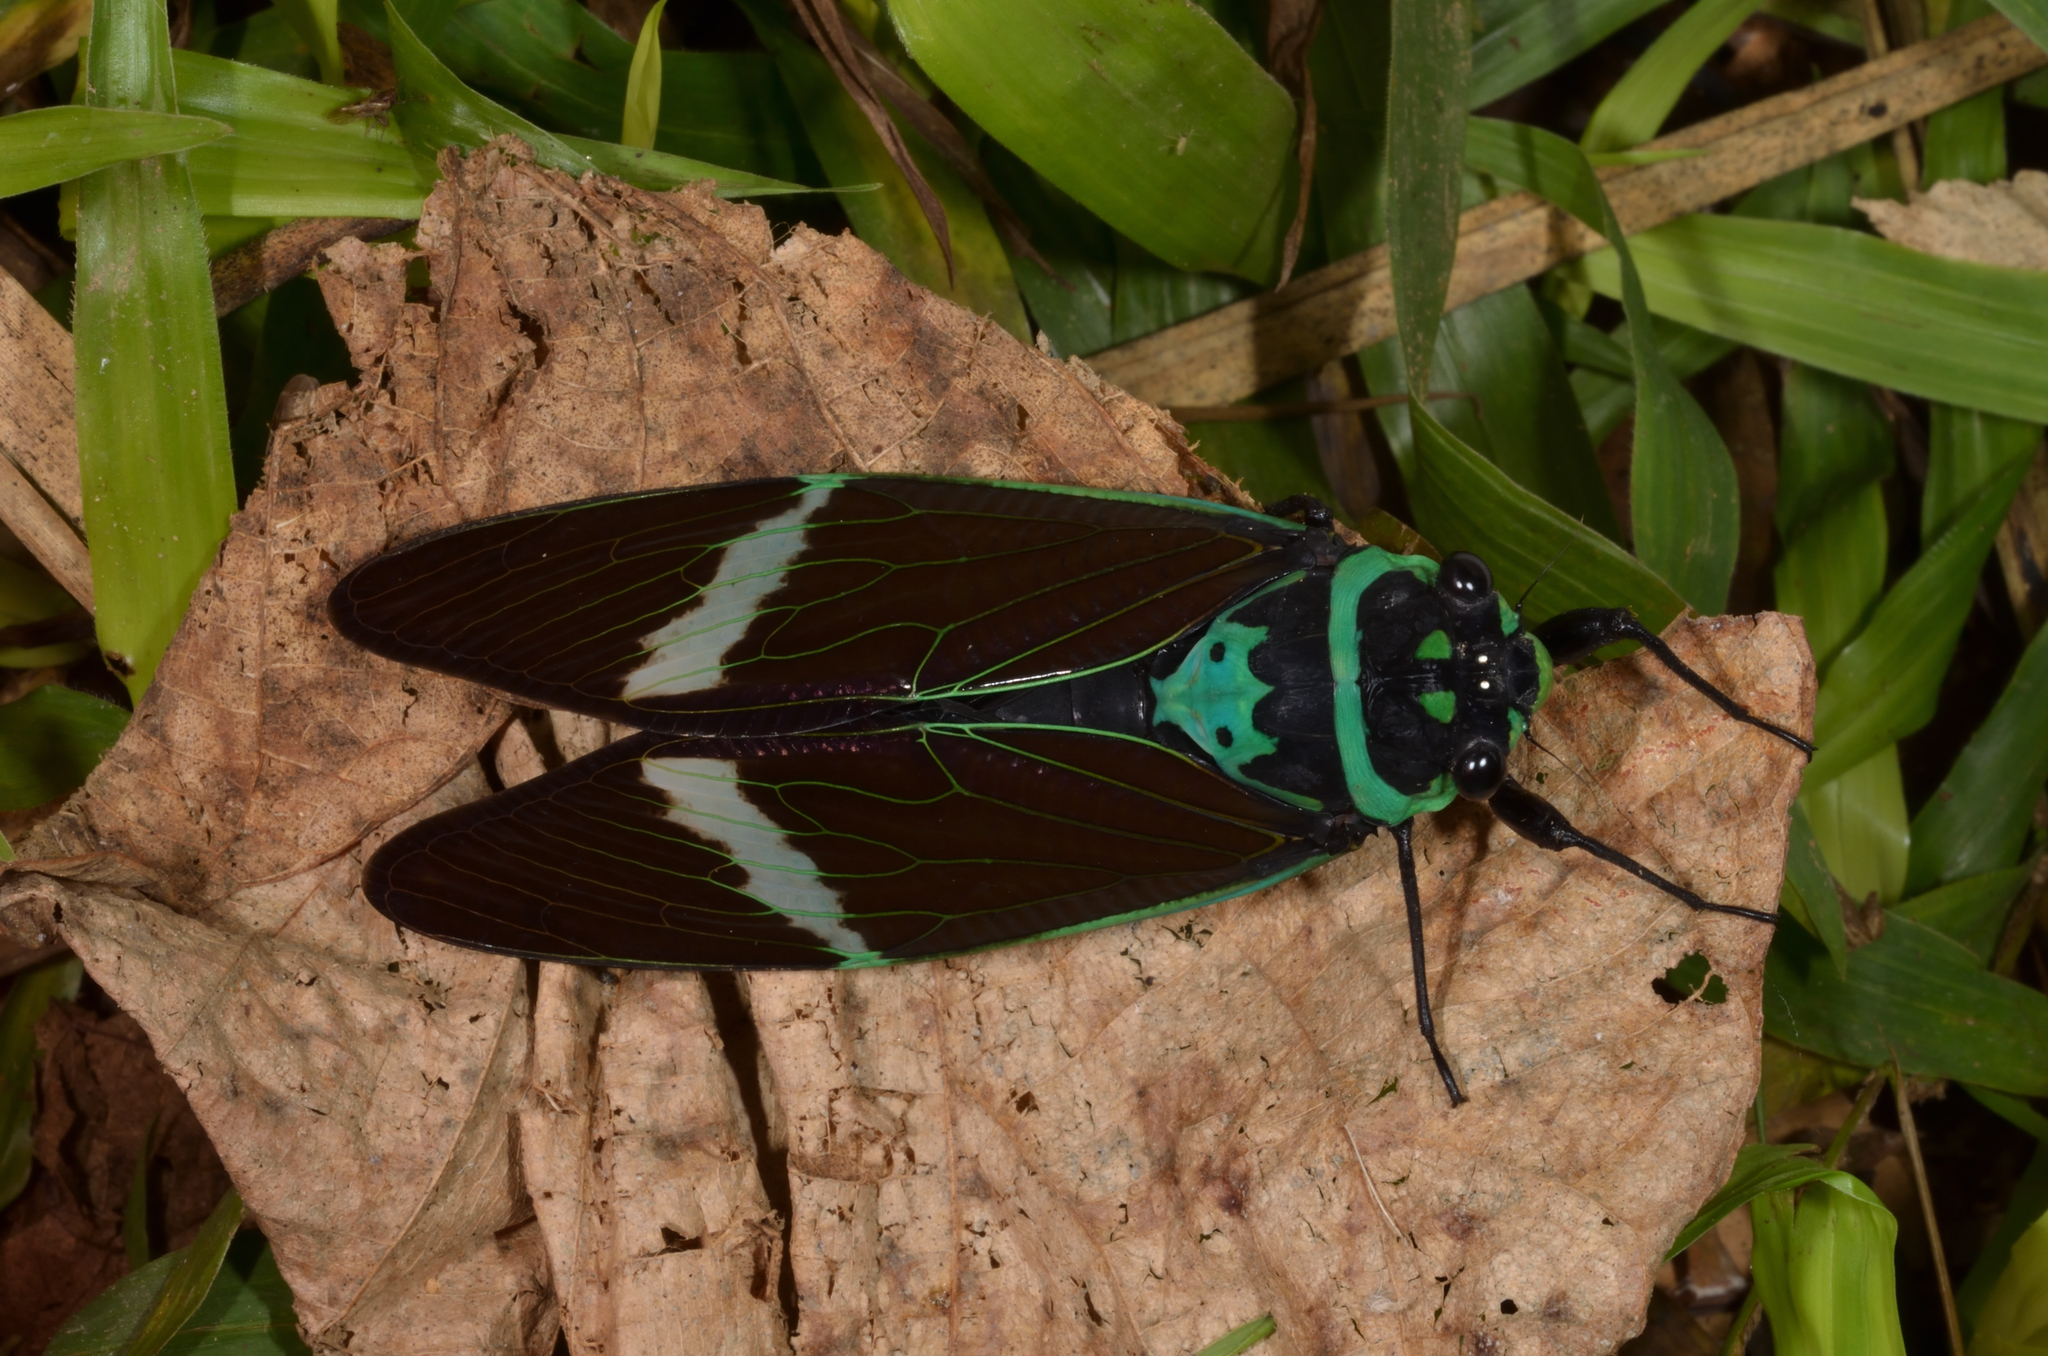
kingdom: Animalia
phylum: Arthropoda
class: Insecta
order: Hemiptera
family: Cicadidae
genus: Formotosena
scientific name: Formotosena seebohmi
